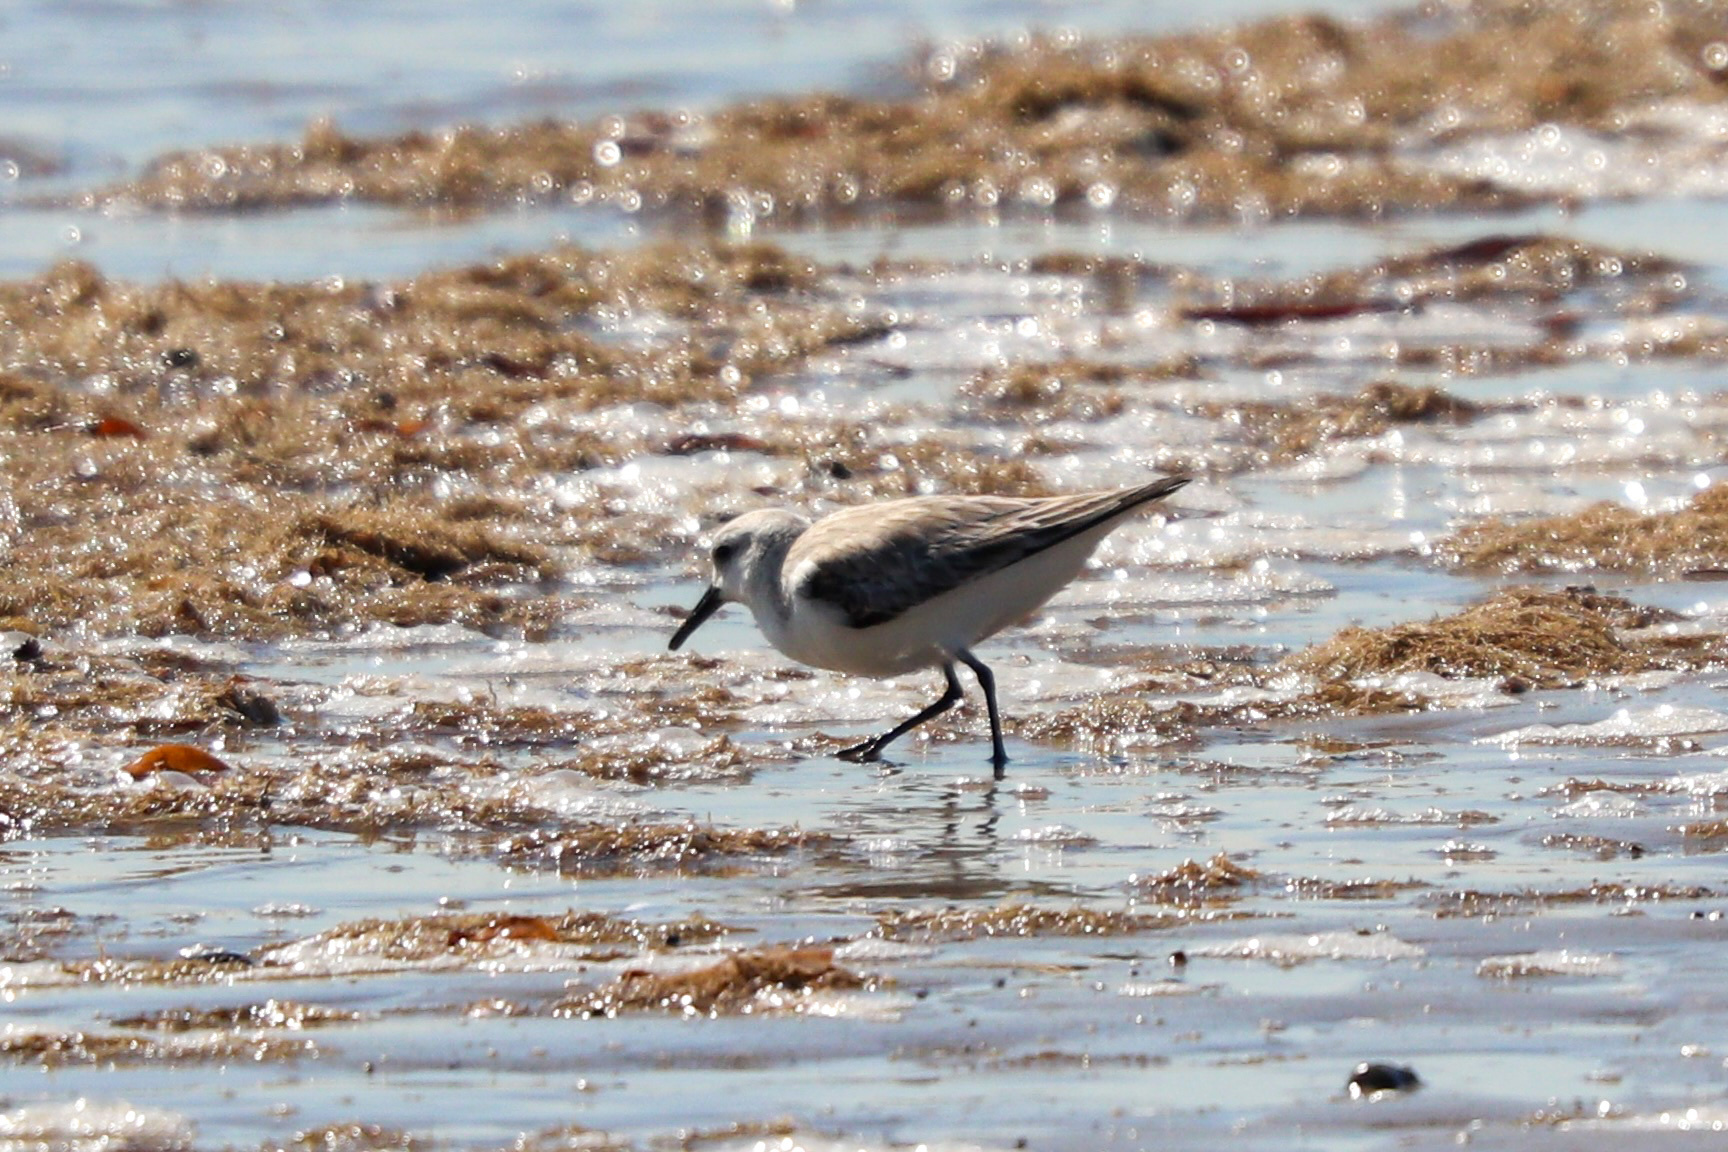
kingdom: Animalia
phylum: Chordata
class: Aves
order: Charadriiformes
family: Scolopacidae
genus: Calidris
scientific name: Calidris alba
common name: Sanderling
